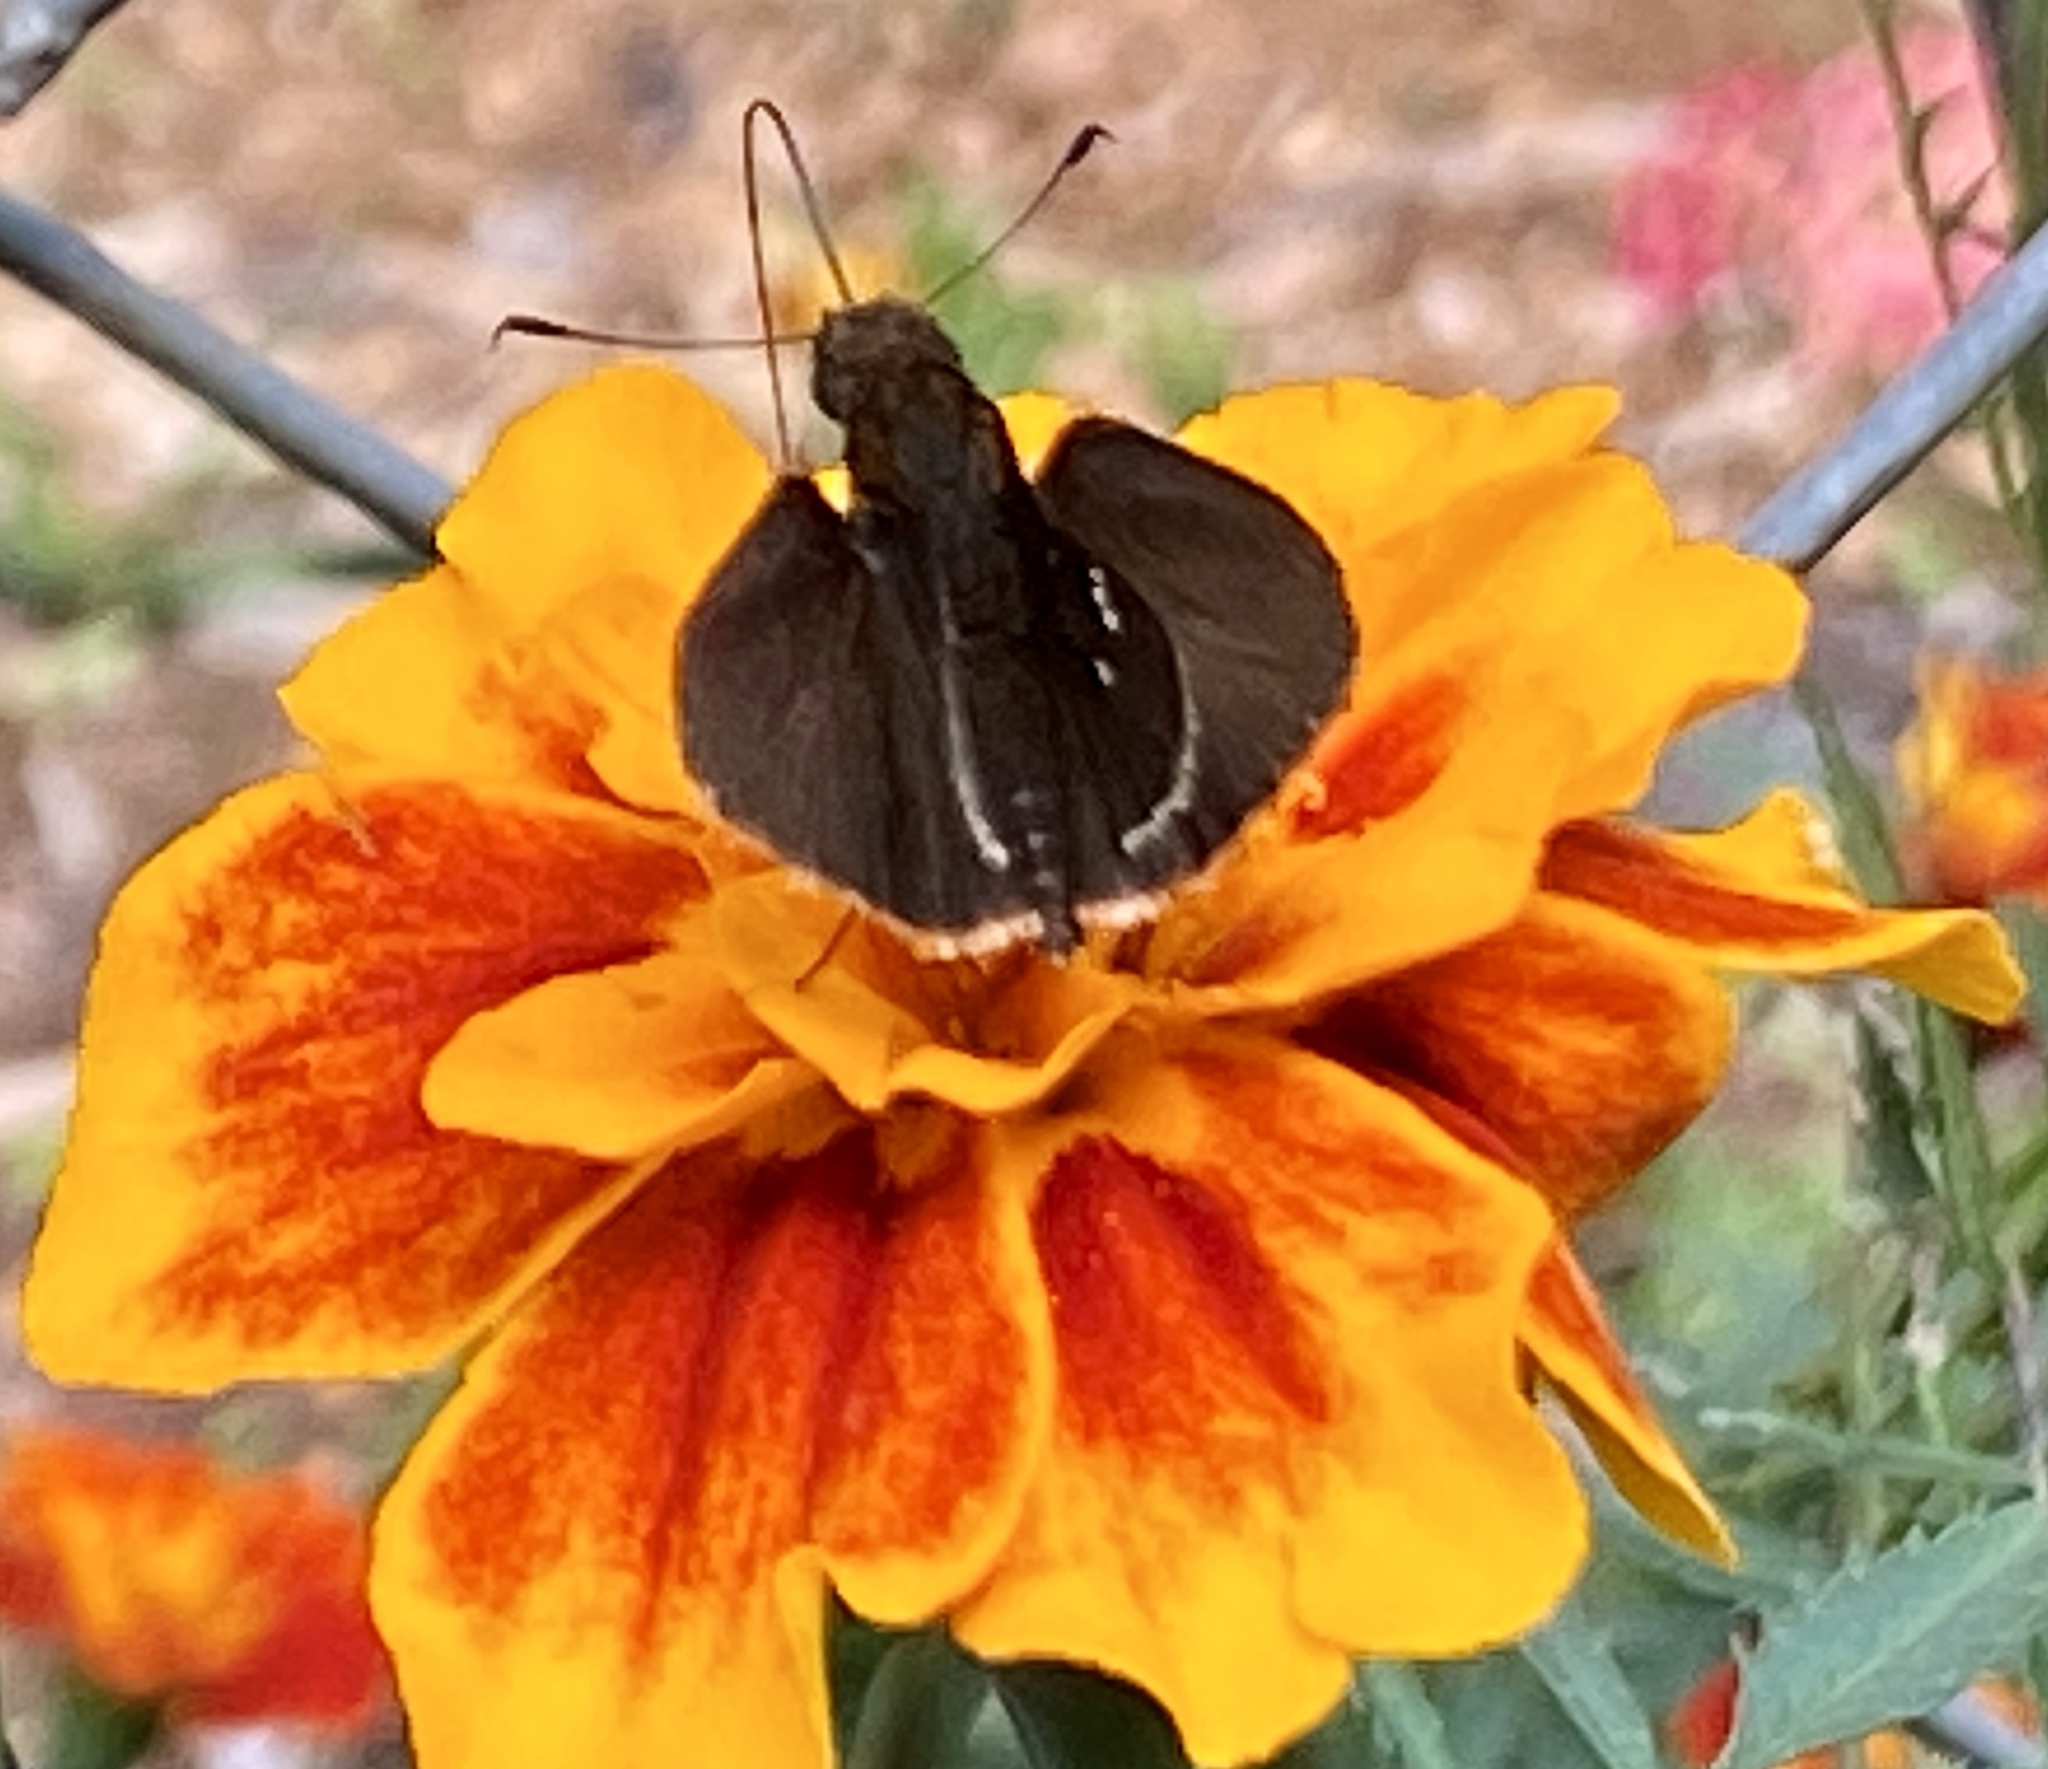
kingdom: Animalia
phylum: Arthropoda
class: Insecta
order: Lepidoptera
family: Hesperiidae
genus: Lerema
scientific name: Lerema accius
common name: Clouded skipper
